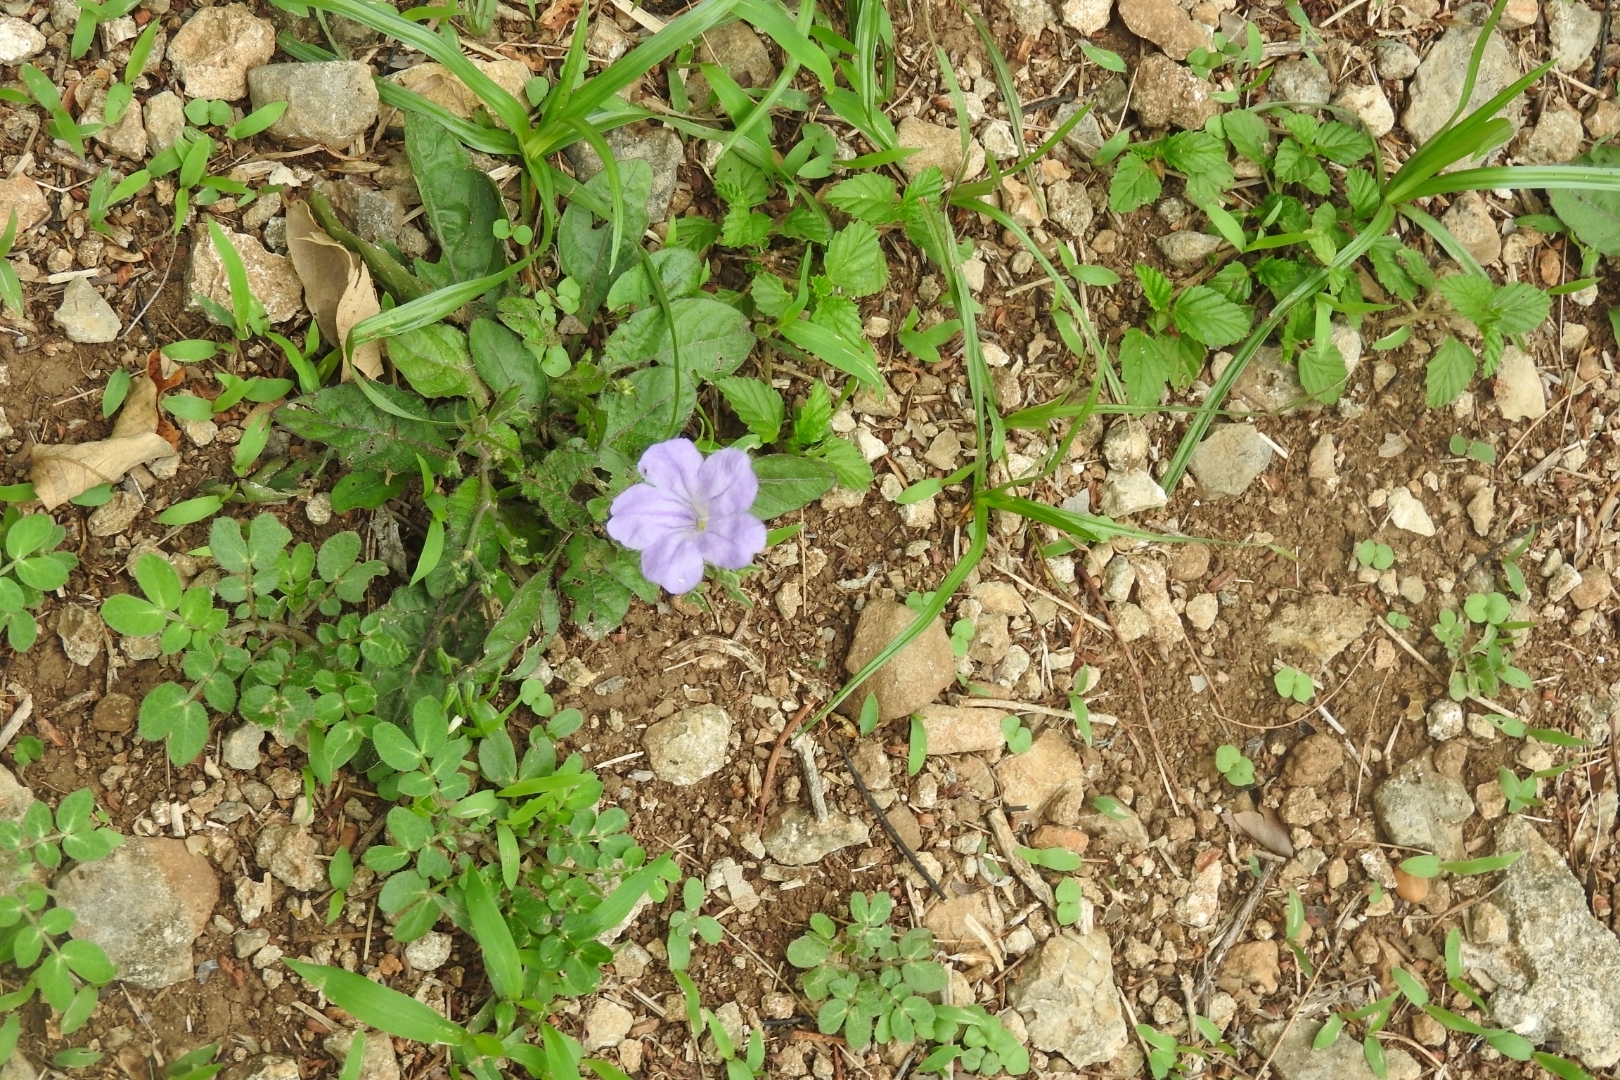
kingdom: Plantae
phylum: Tracheophyta
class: Magnoliopsida
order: Lamiales
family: Acanthaceae
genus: Ruellia
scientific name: Ruellia ciliatiflora
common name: Hairyflower wild petunia
